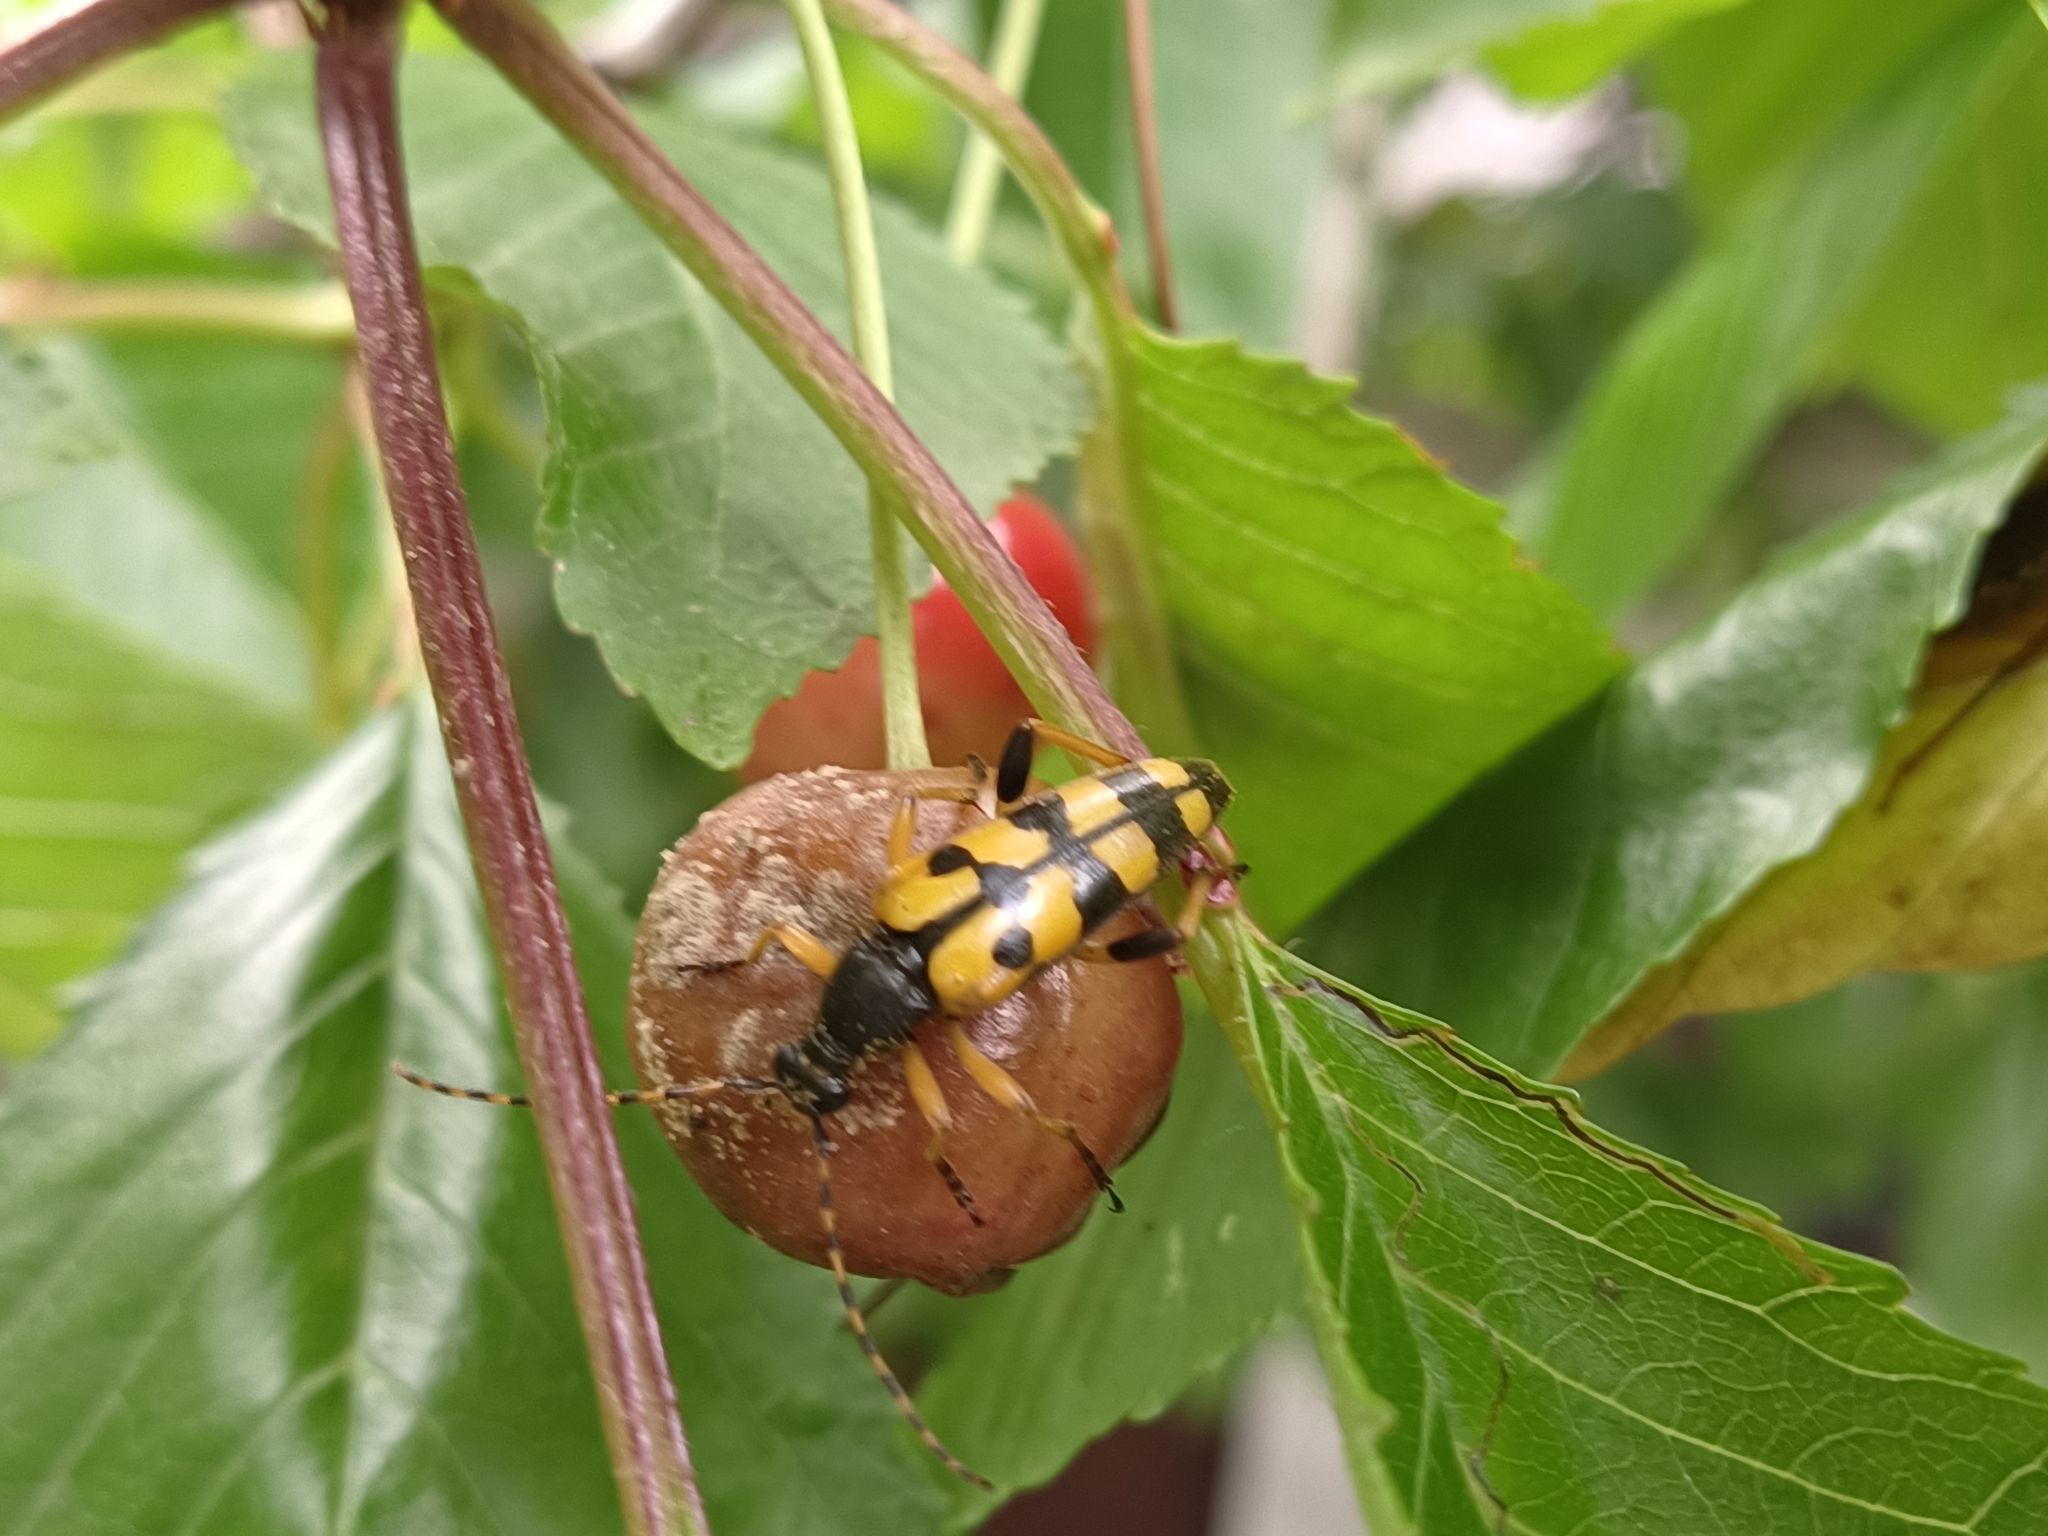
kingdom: Animalia
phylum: Arthropoda
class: Insecta
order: Coleoptera
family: Cerambycidae
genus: Rutpela
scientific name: Rutpela maculata
